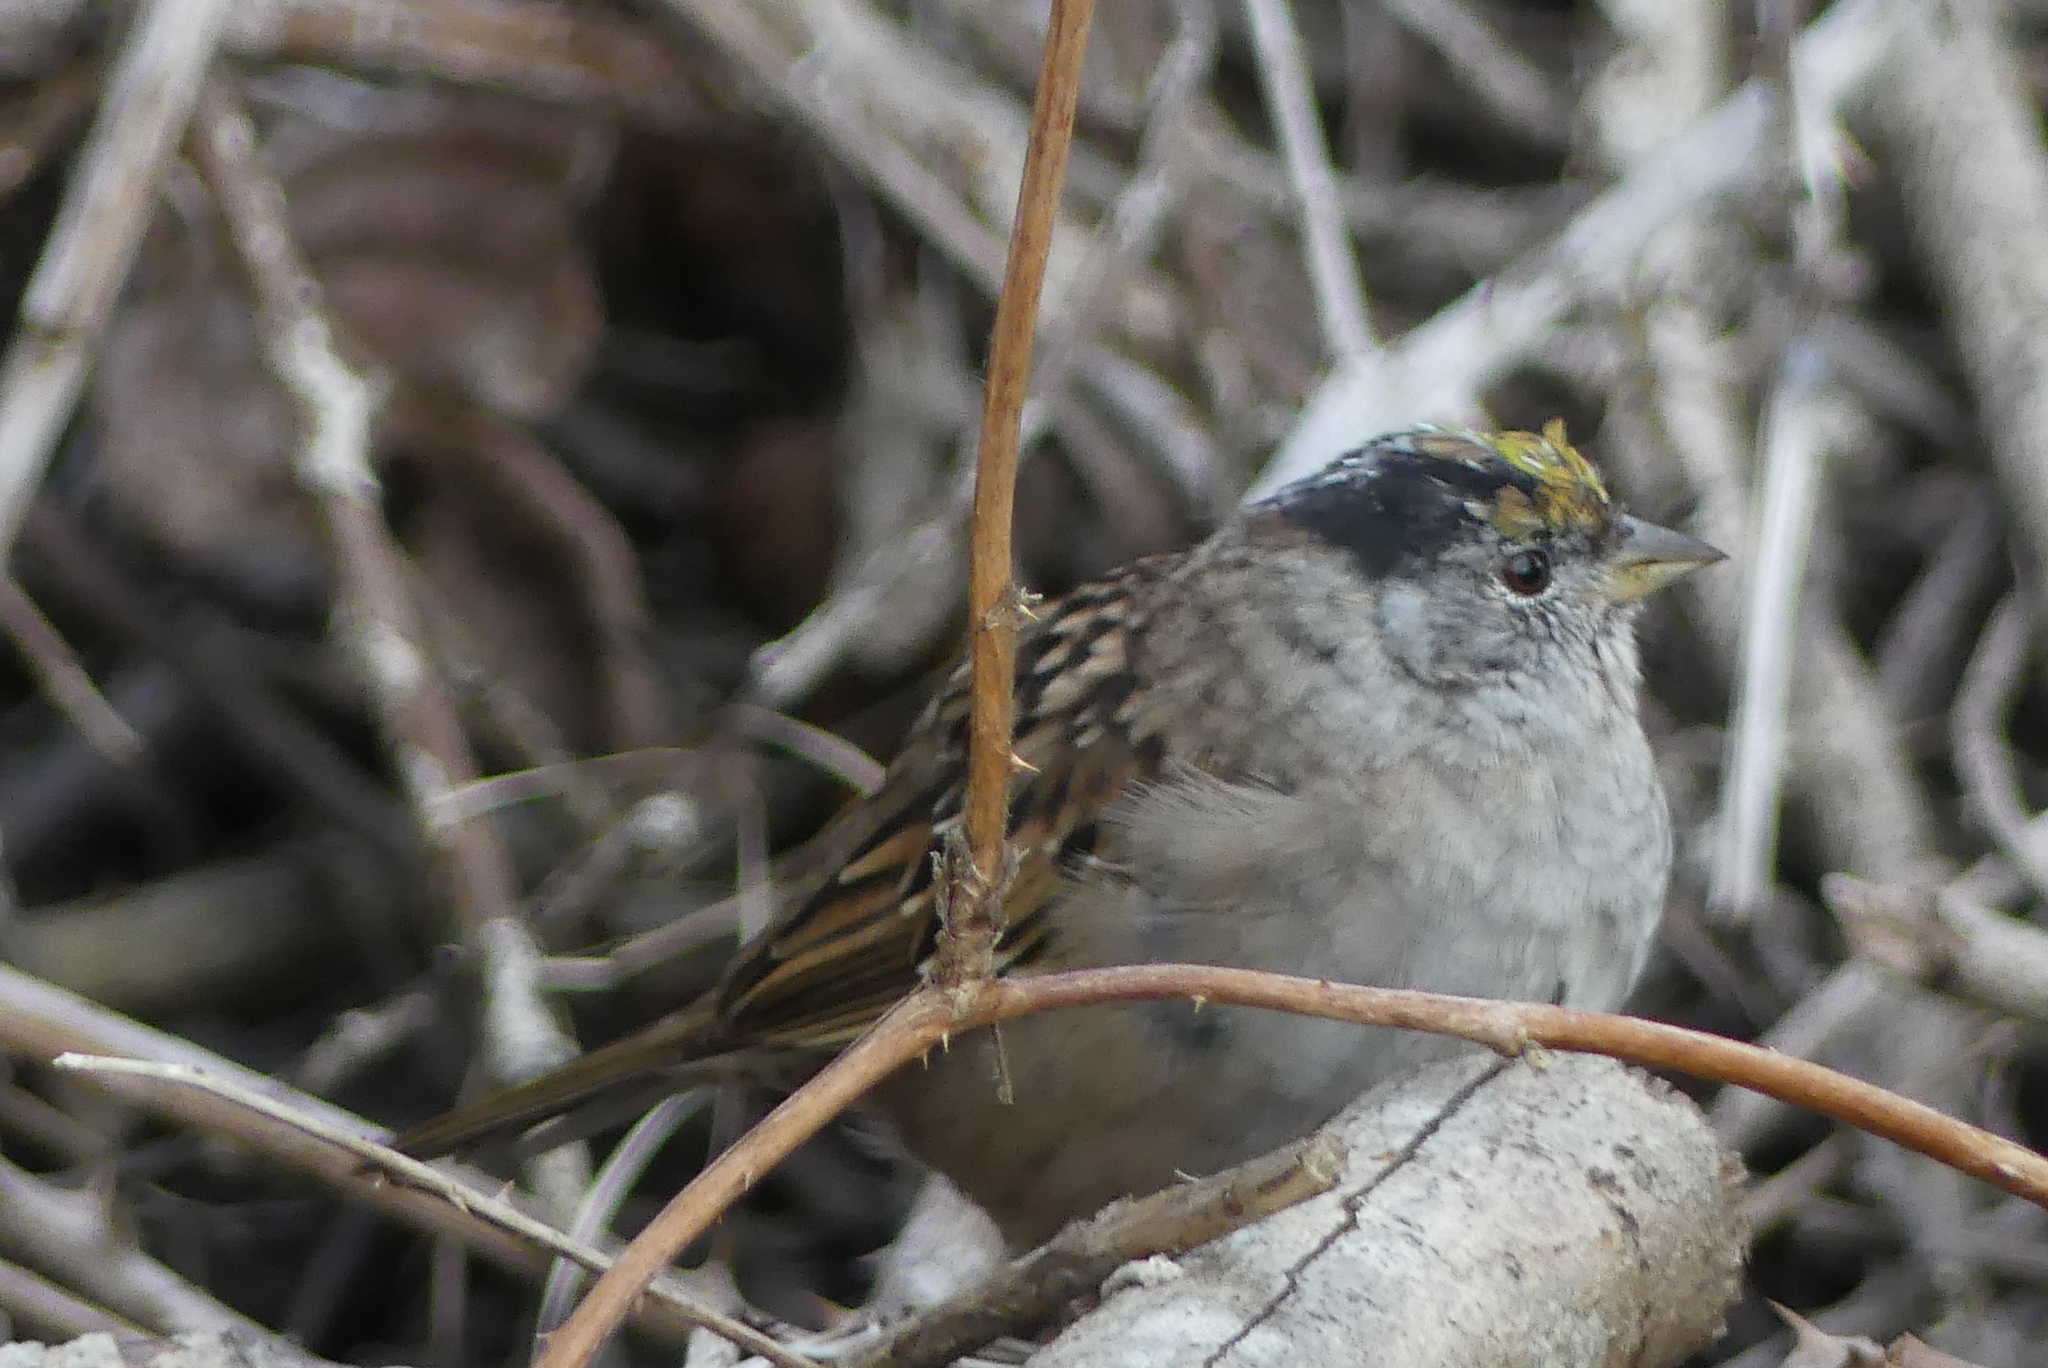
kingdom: Animalia
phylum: Chordata
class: Aves
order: Passeriformes
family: Passerellidae
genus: Zonotrichia
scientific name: Zonotrichia atricapilla
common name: Golden-crowned sparrow
